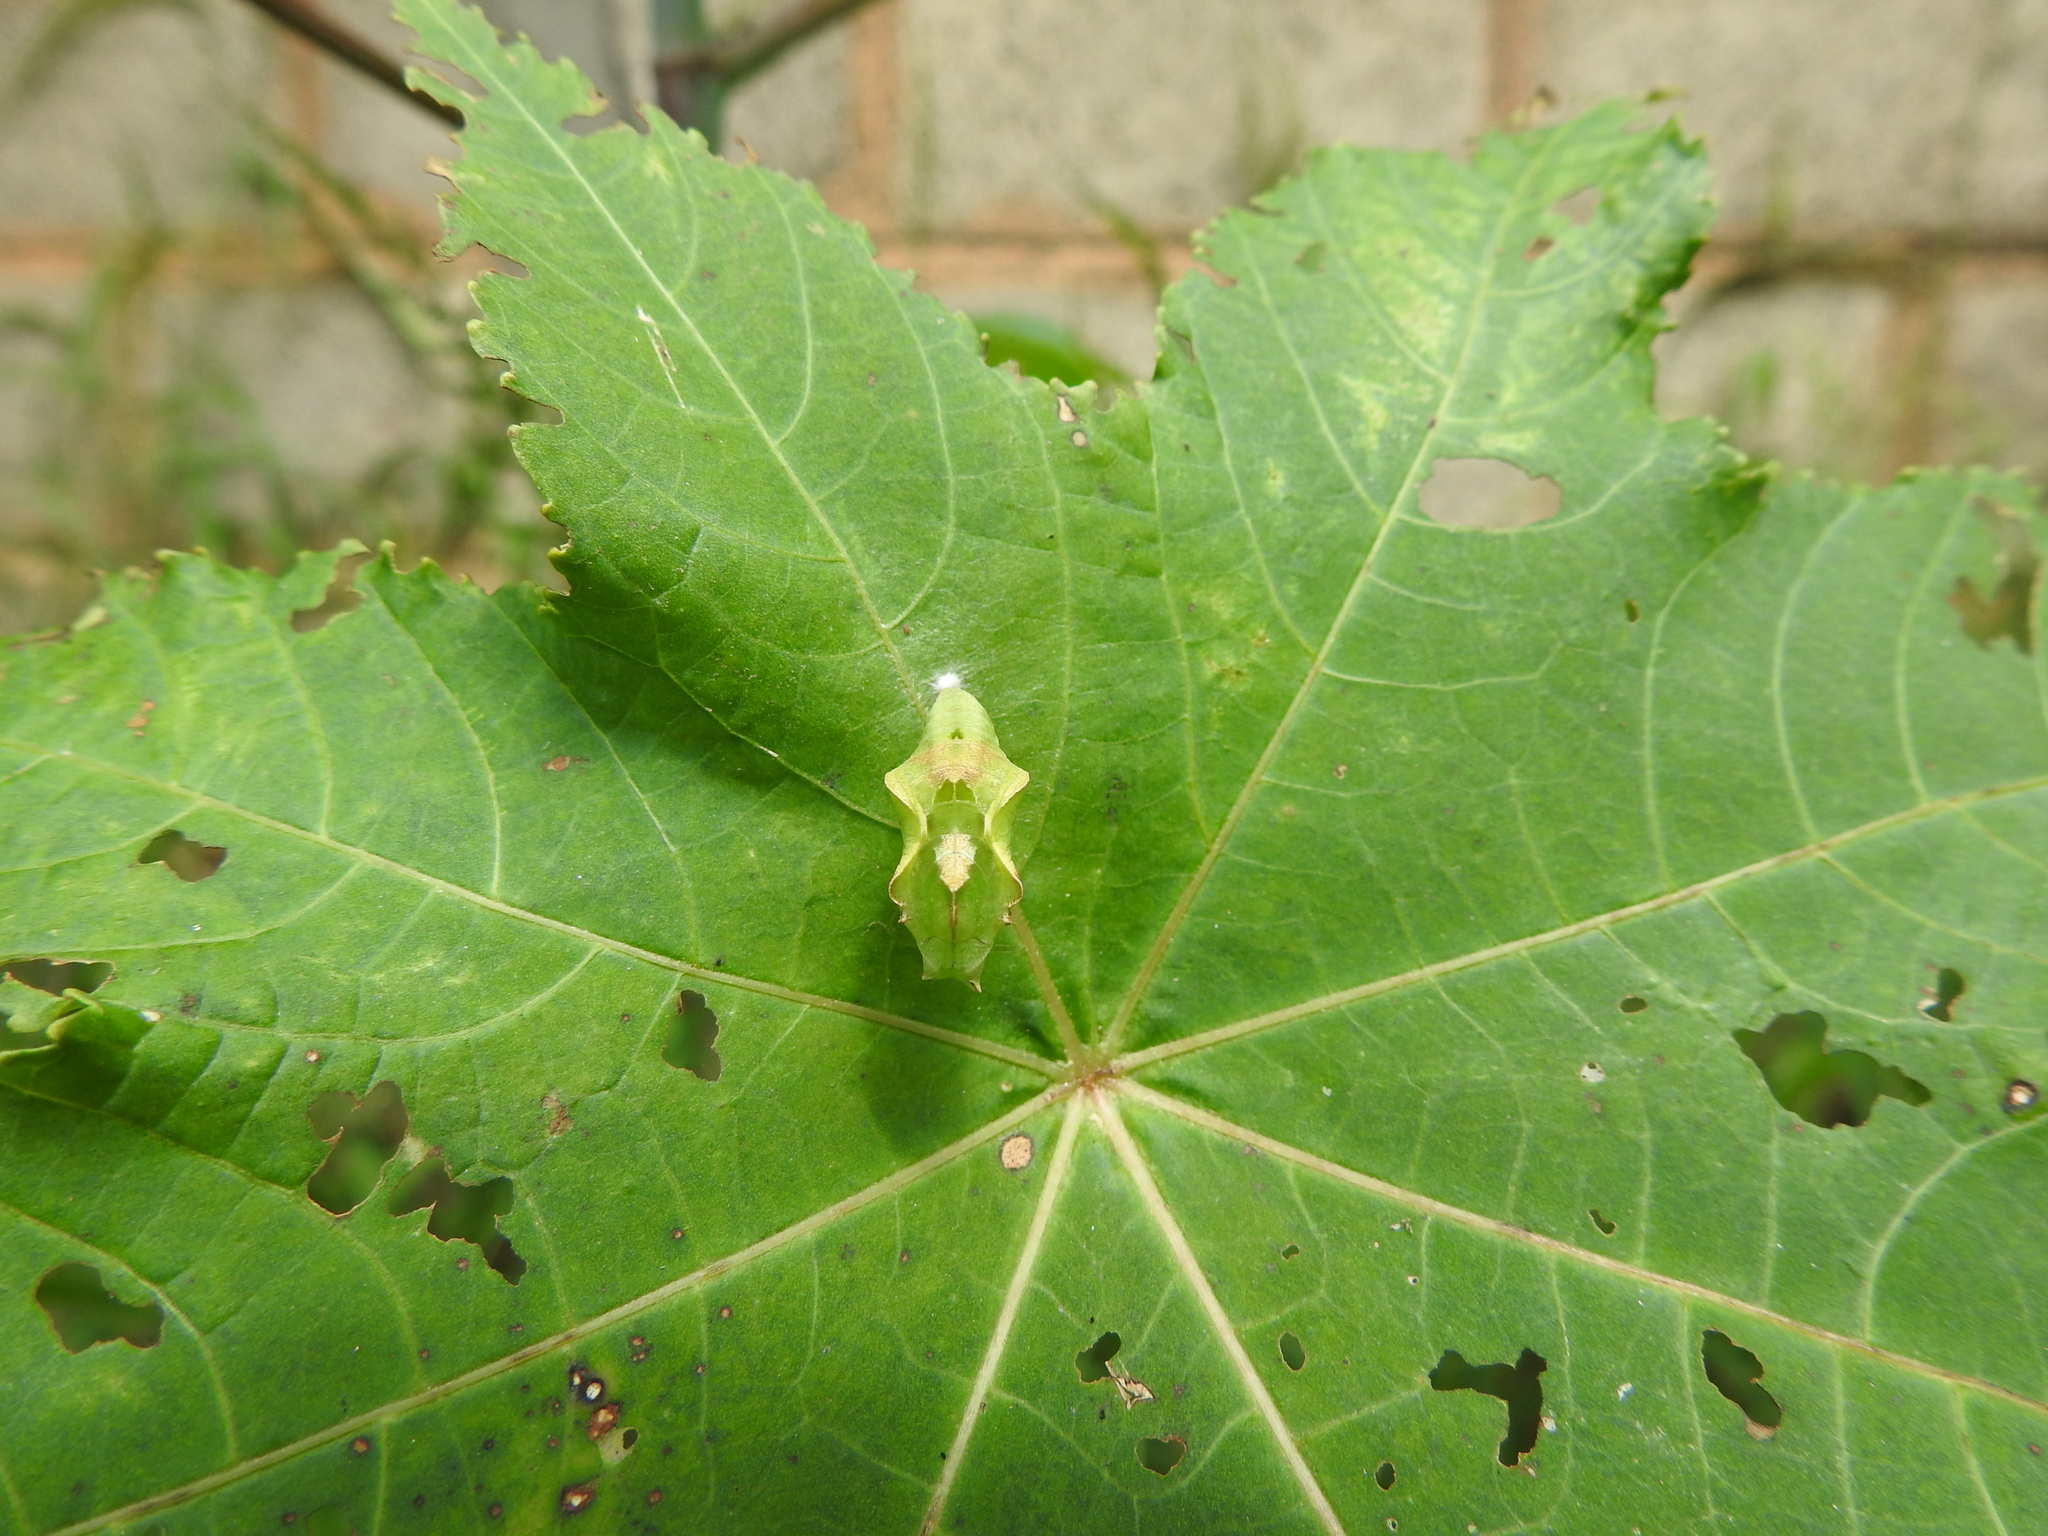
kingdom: Animalia
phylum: Arthropoda
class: Insecta
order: Lepidoptera
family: Nymphalidae
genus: Ariadne
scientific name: Ariadne merione
